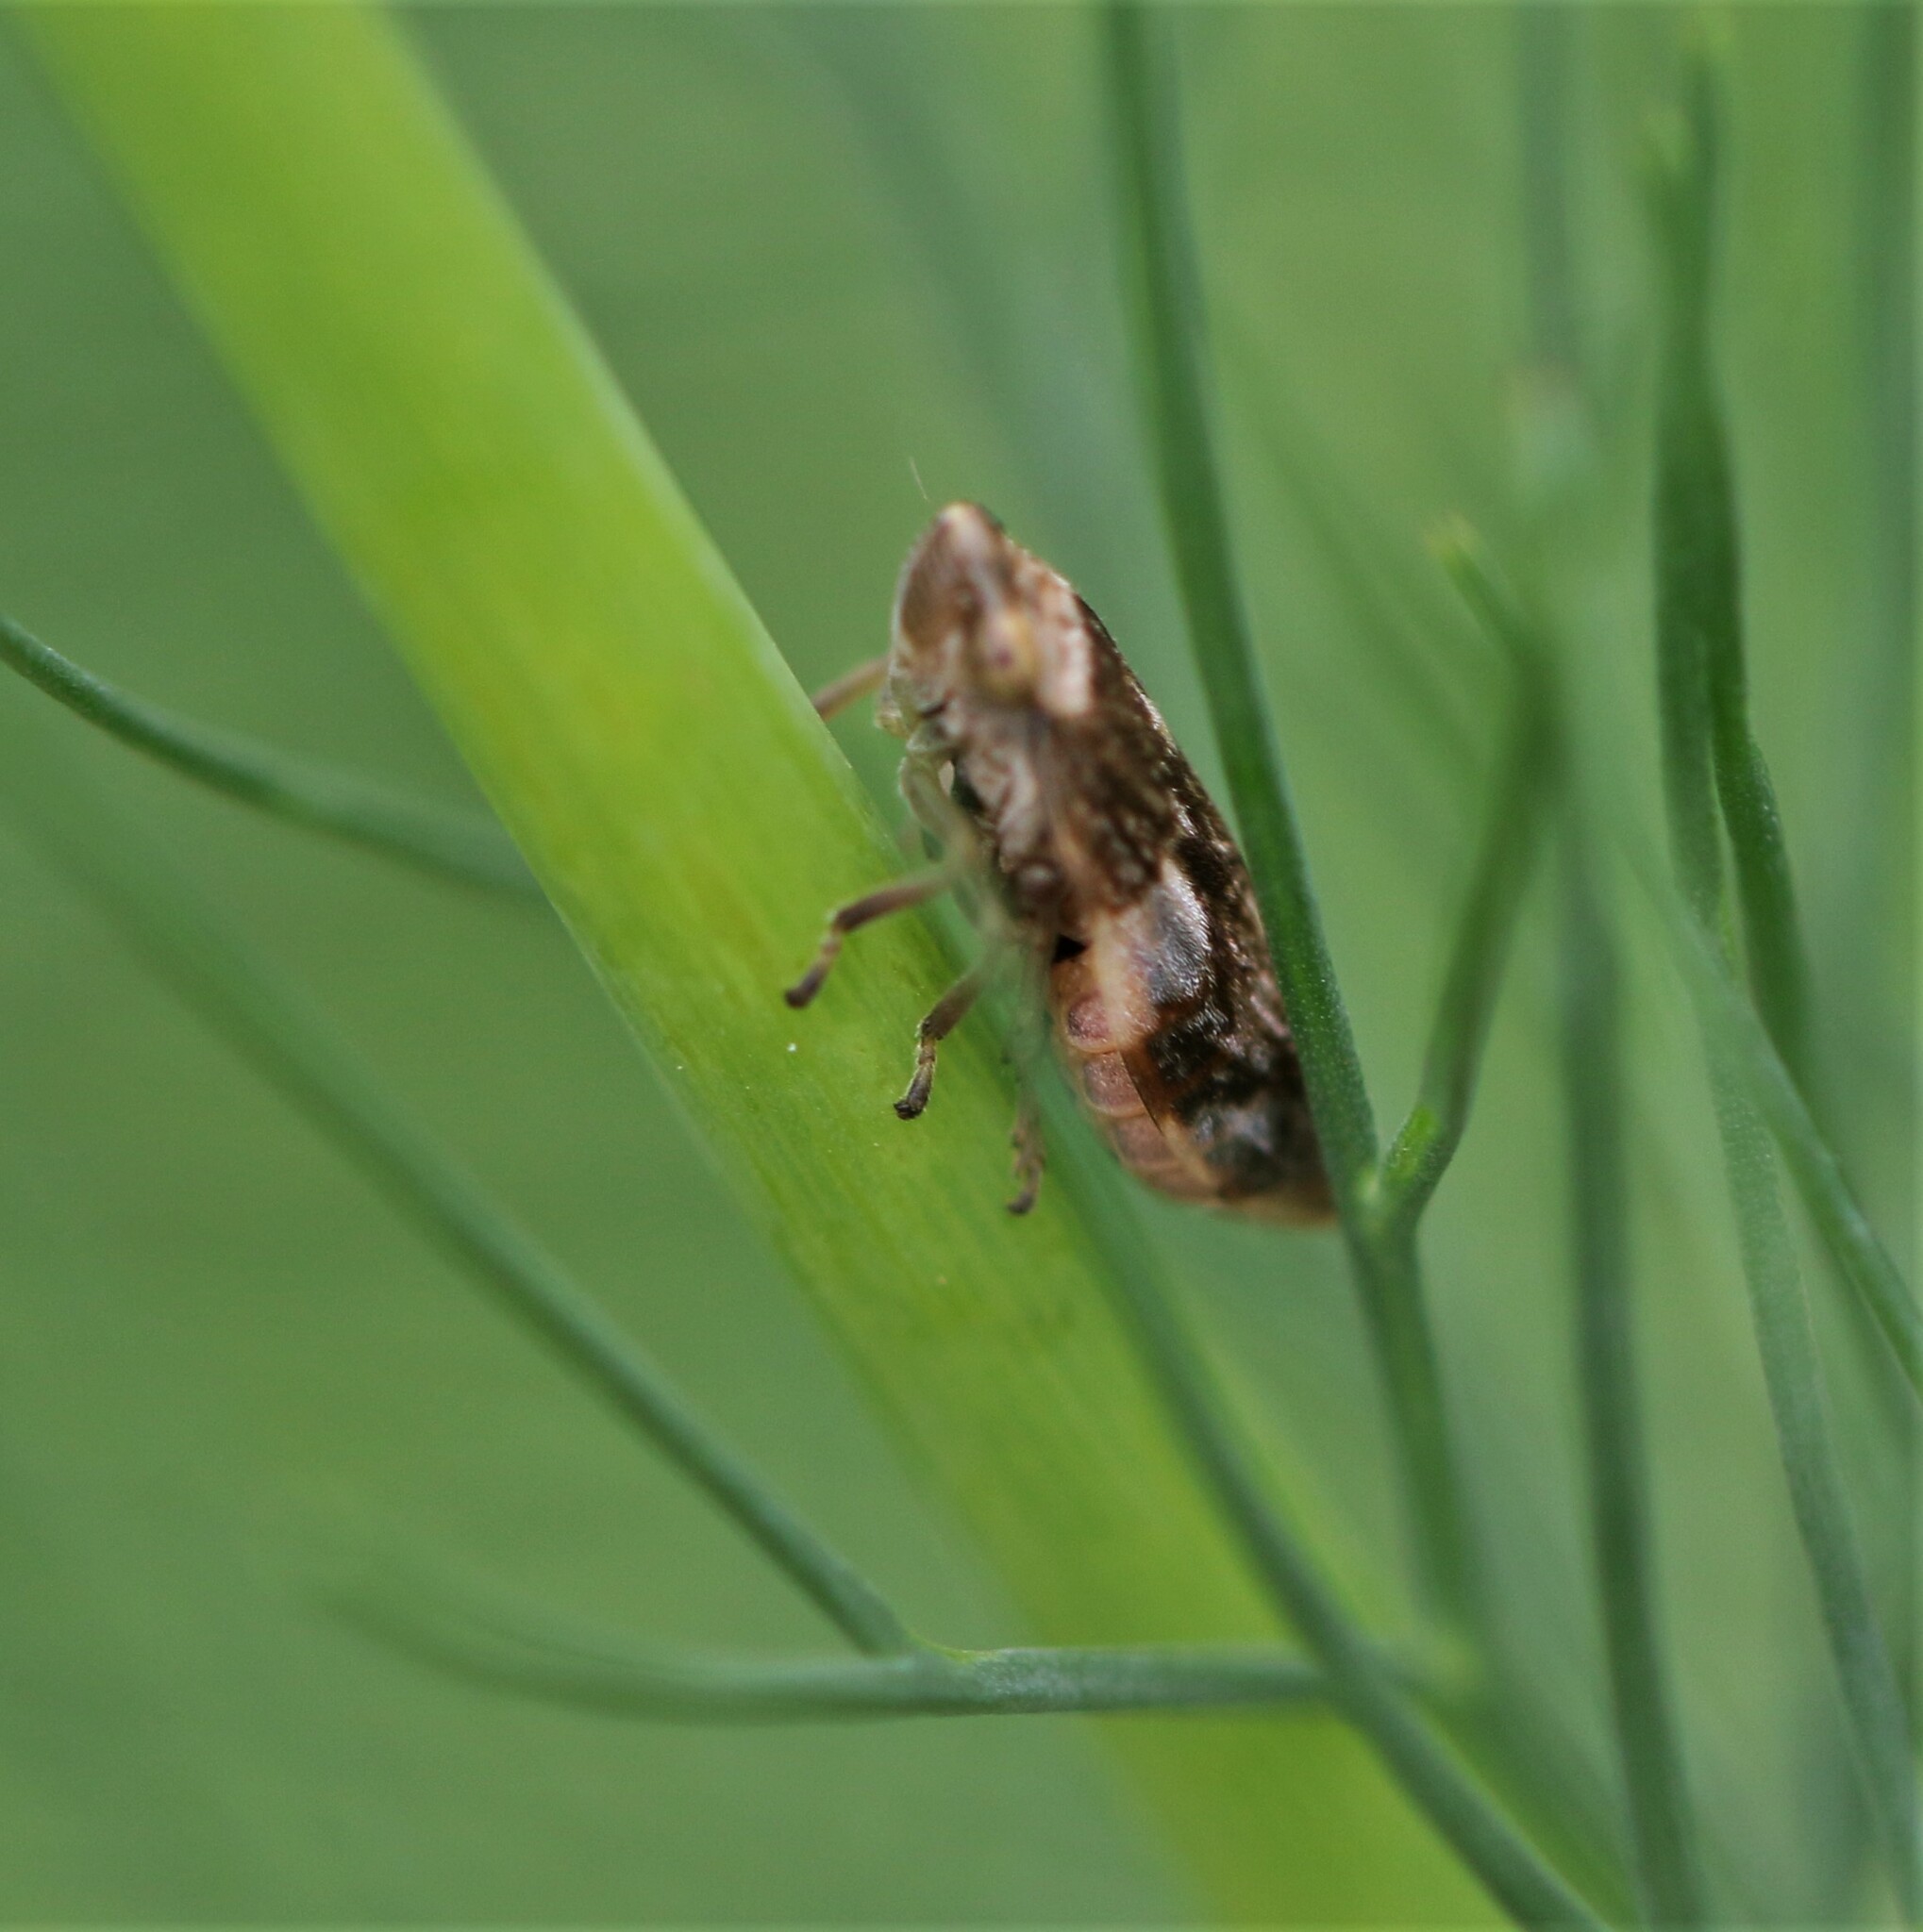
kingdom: Animalia
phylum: Arthropoda
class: Insecta
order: Hemiptera
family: Aphrophoridae
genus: Philaenus
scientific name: Philaenus spumarius
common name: Meadow spittlebug
